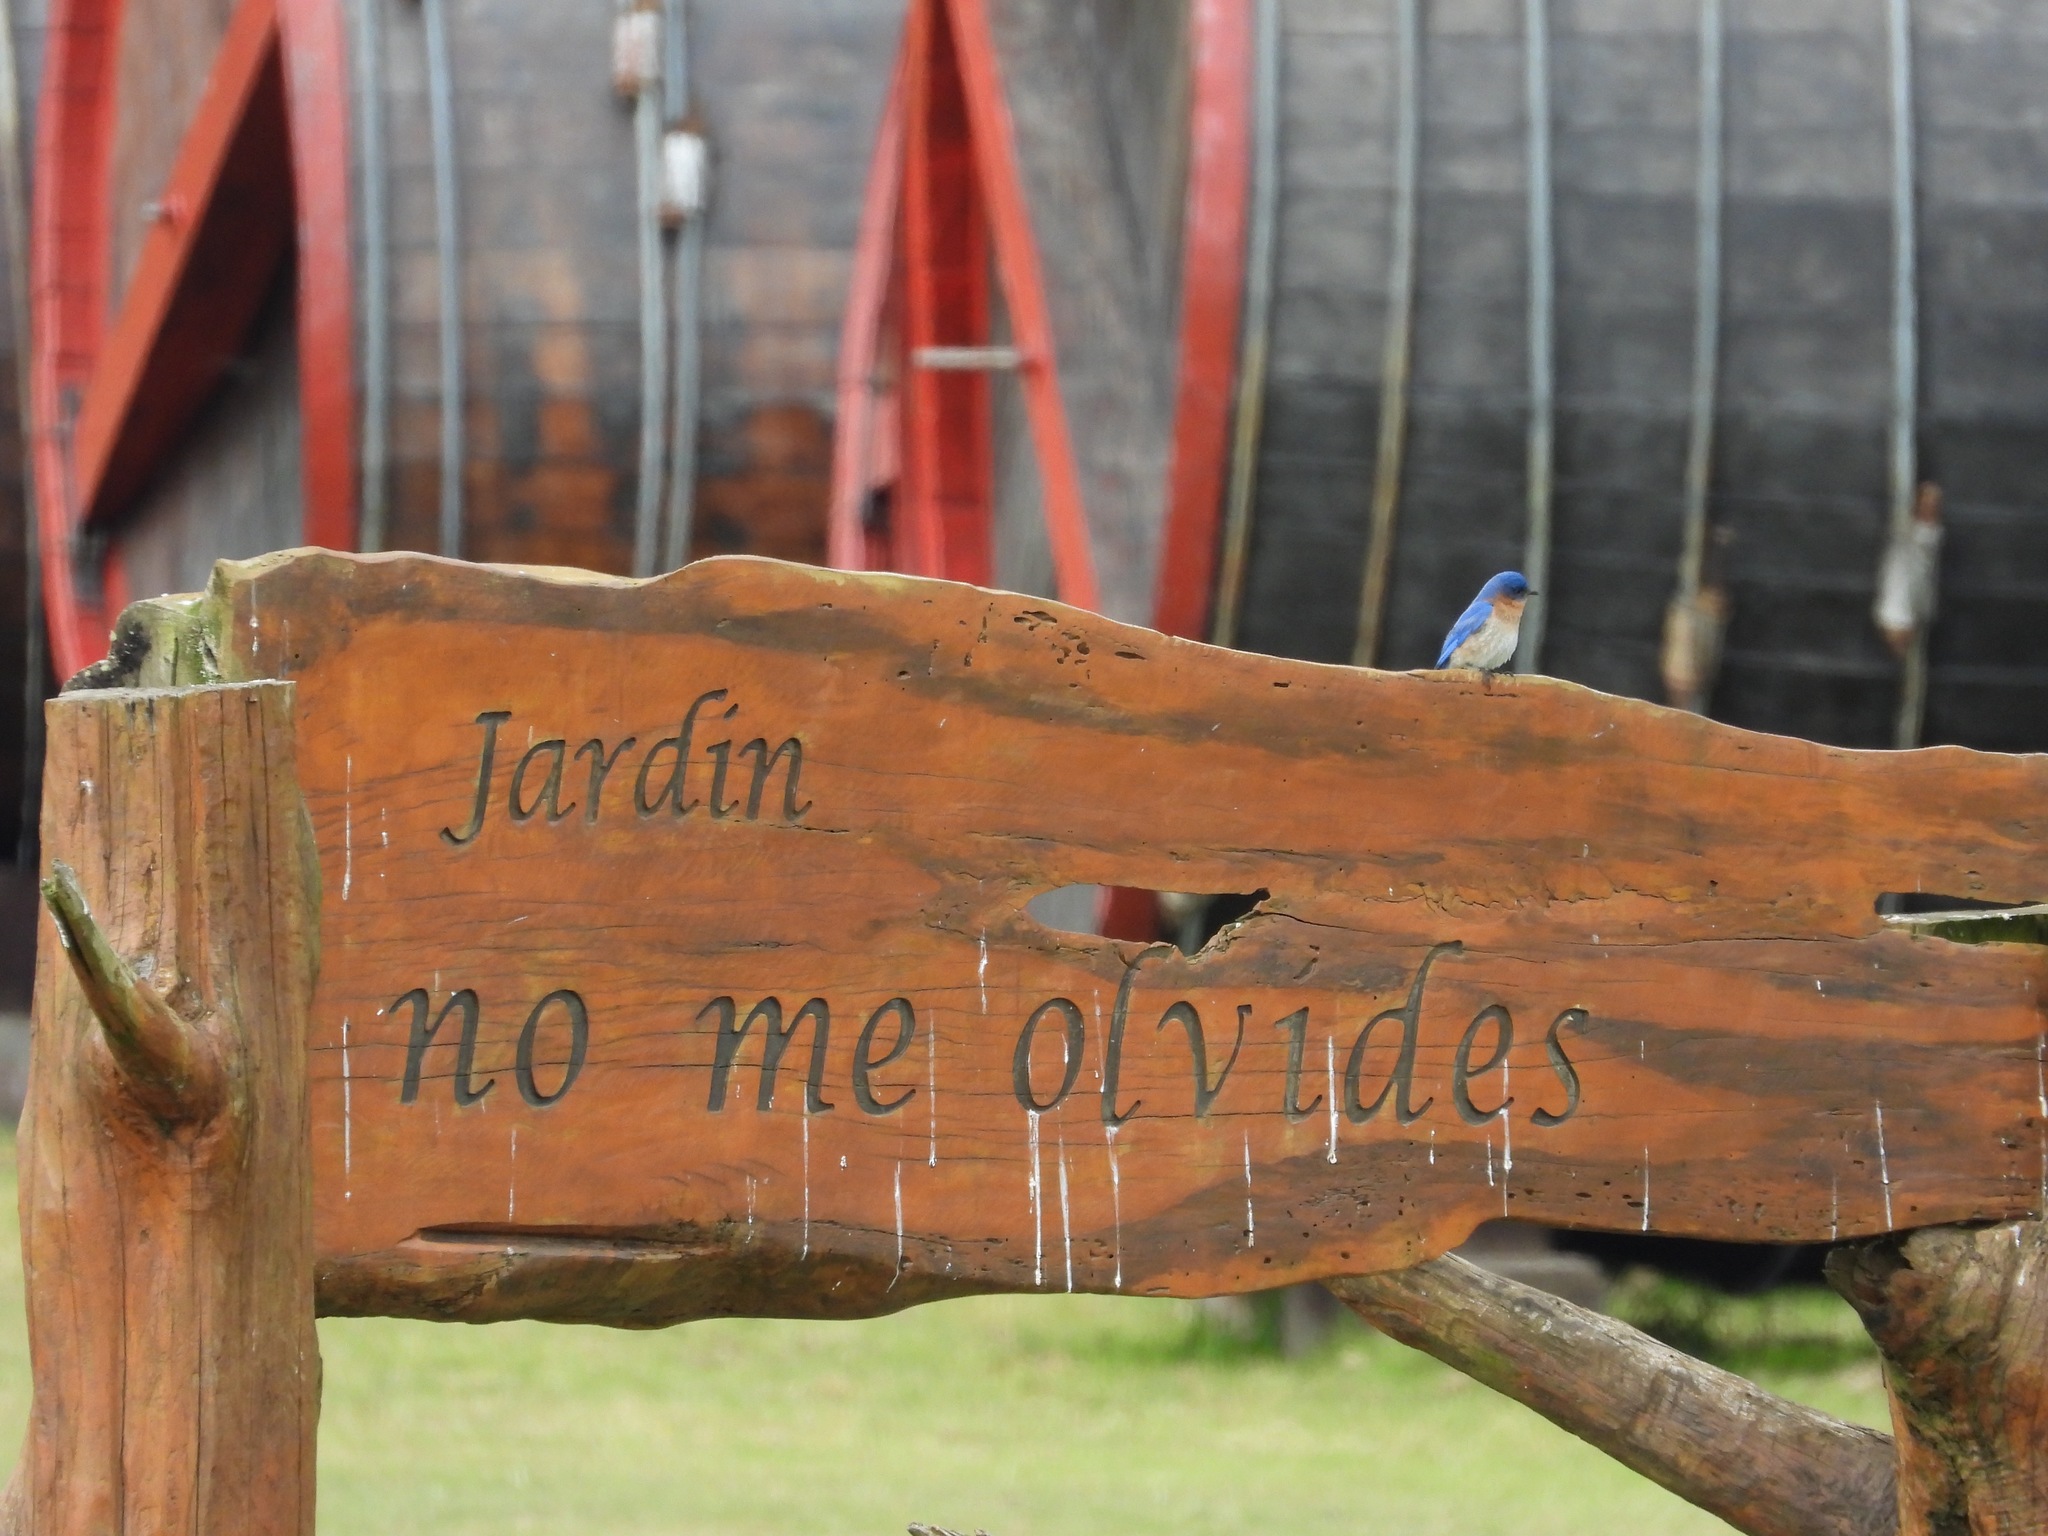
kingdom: Animalia
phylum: Chordata
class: Aves
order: Passeriformes
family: Turdidae
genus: Sialia
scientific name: Sialia sialis
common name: Eastern bluebird
